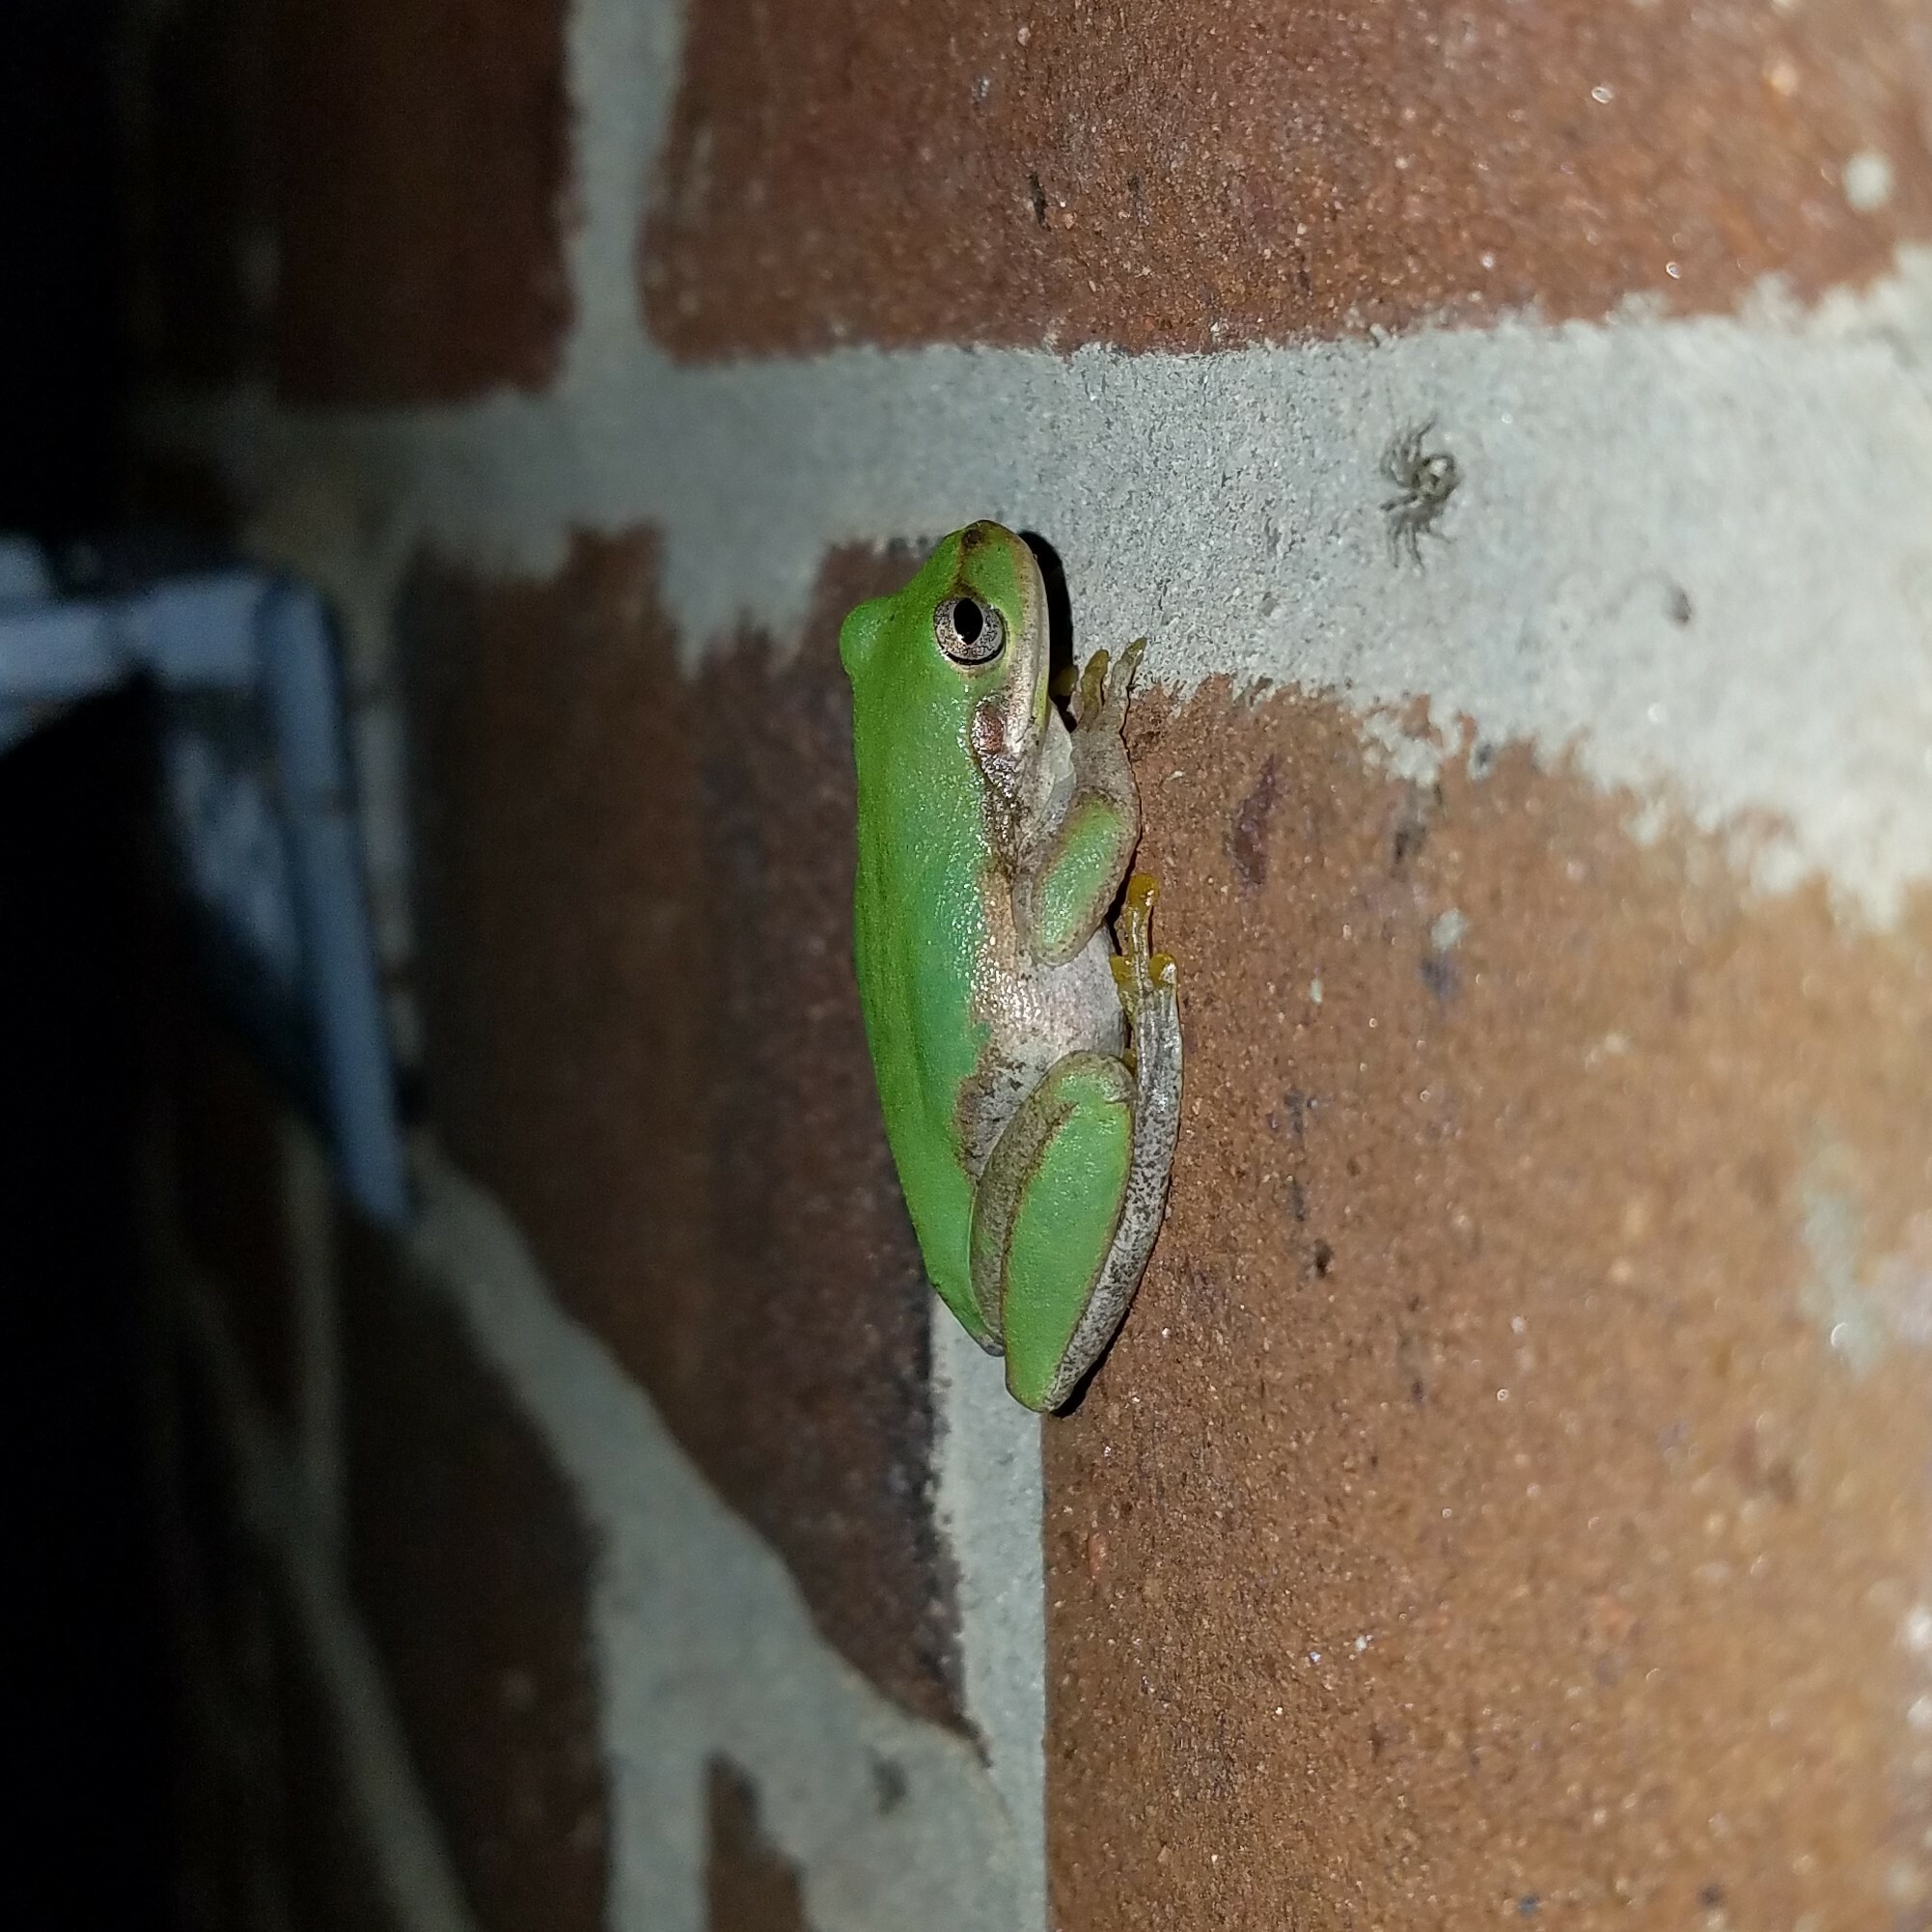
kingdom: Animalia
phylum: Chordata
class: Amphibia
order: Anura
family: Hylidae
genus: Dryophytes
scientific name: Dryophytes squirellus
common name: Squirrel treefrog
